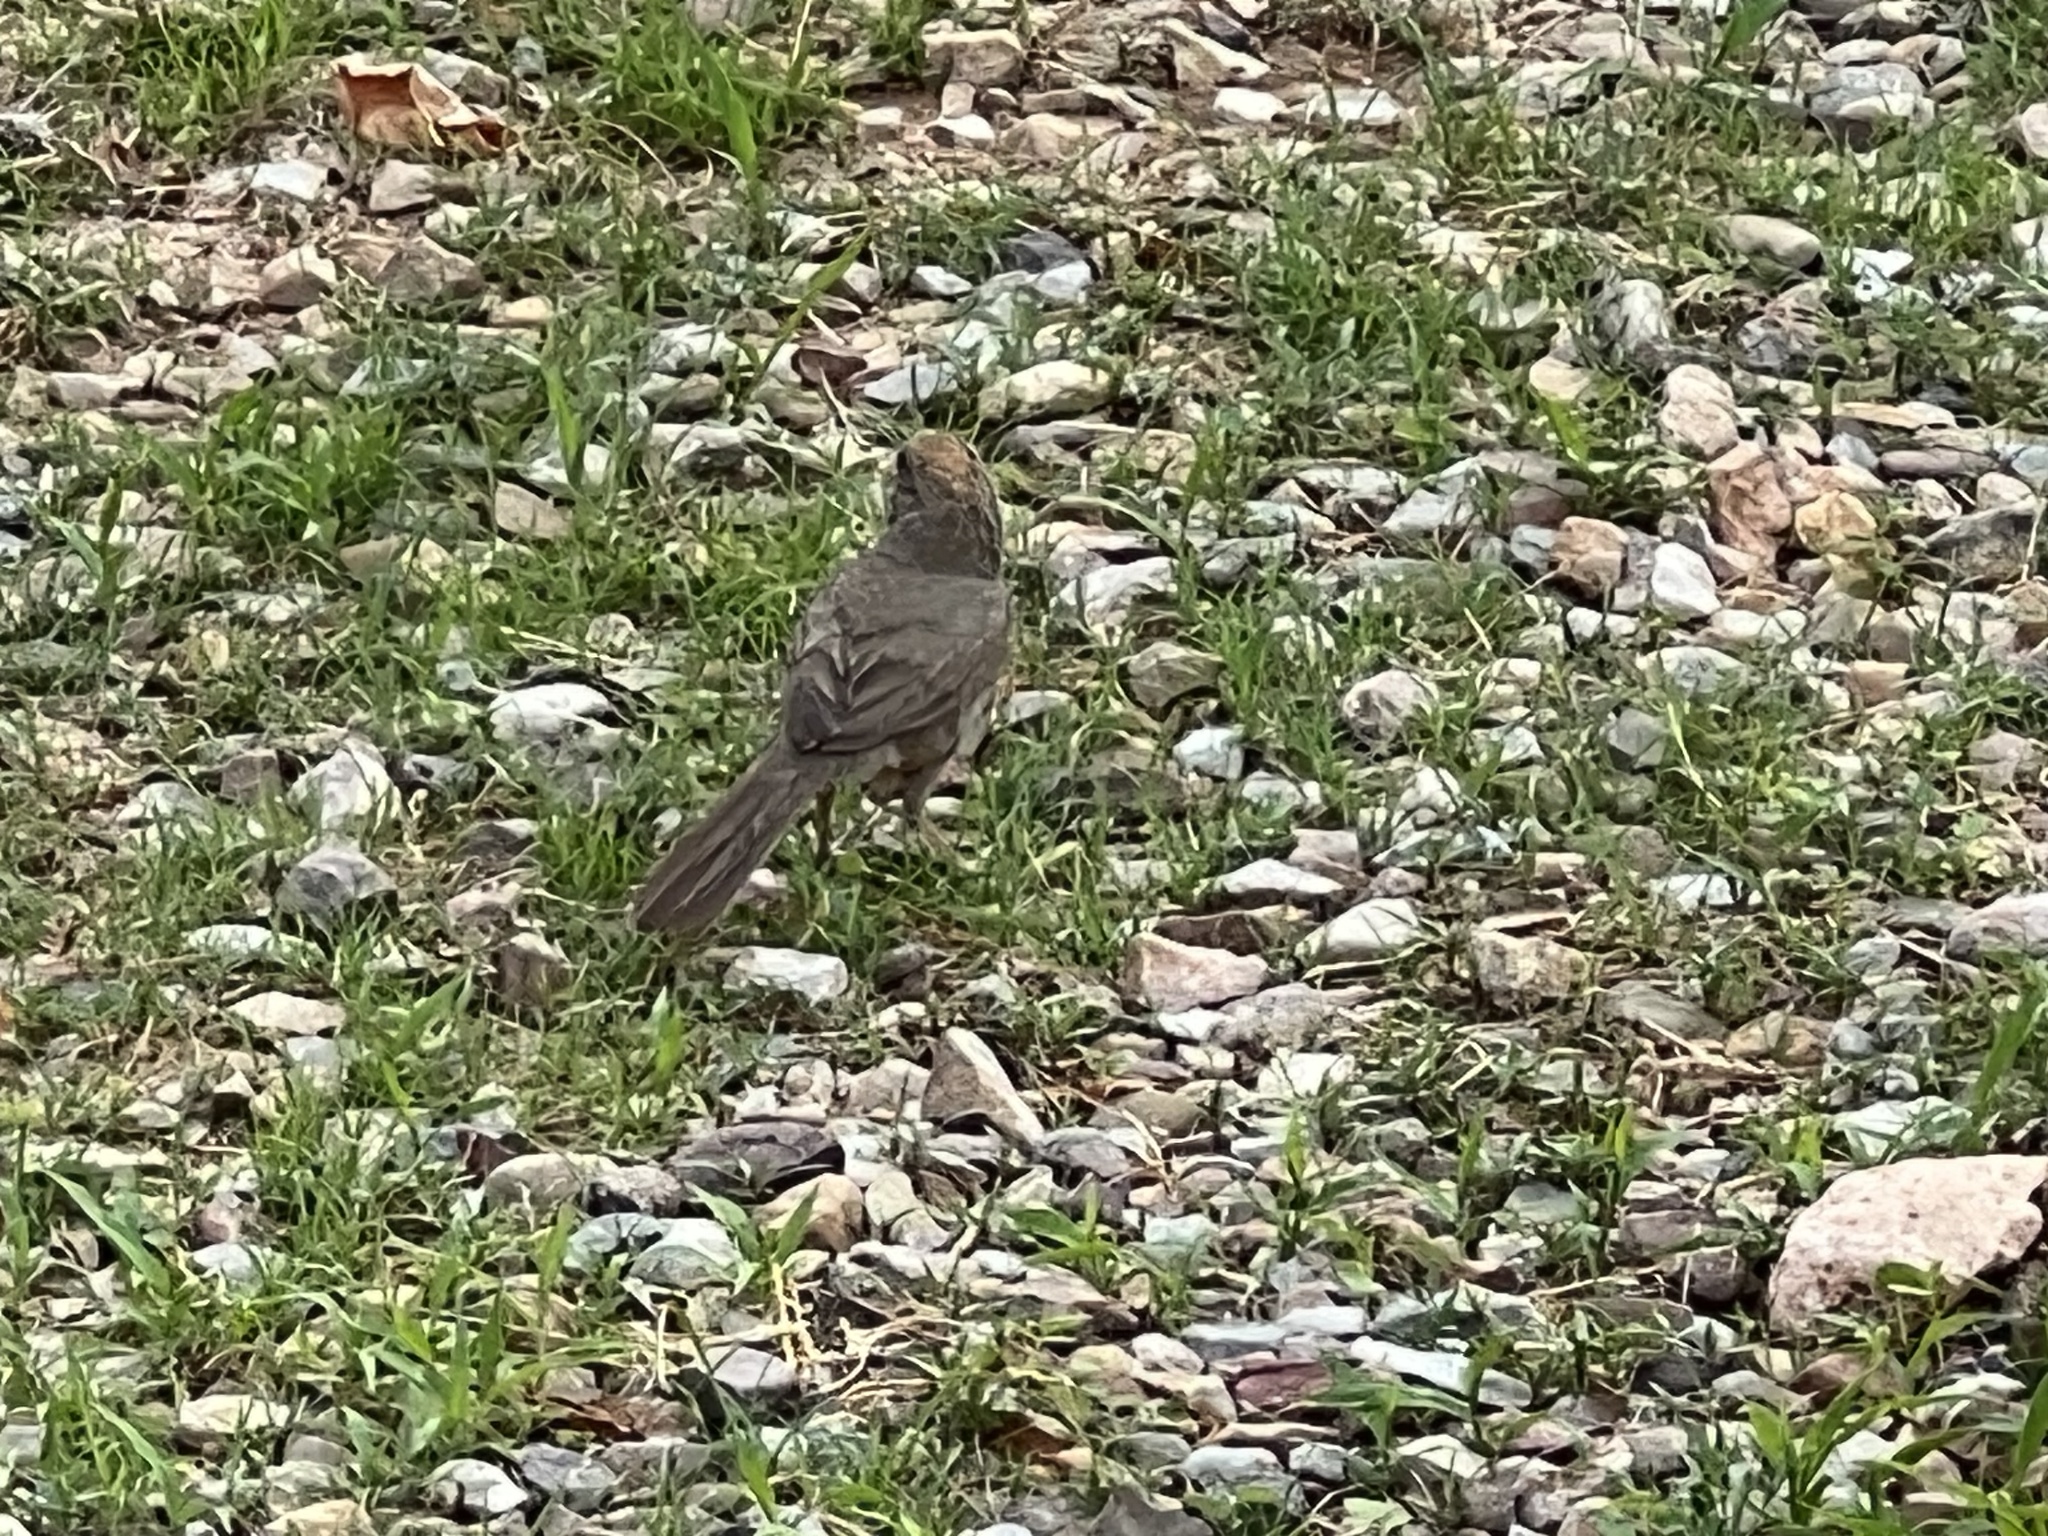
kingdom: Animalia
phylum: Chordata
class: Aves
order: Passeriformes
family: Passerellidae
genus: Melozone
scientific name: Melozone fusca
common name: Canyon towhee
